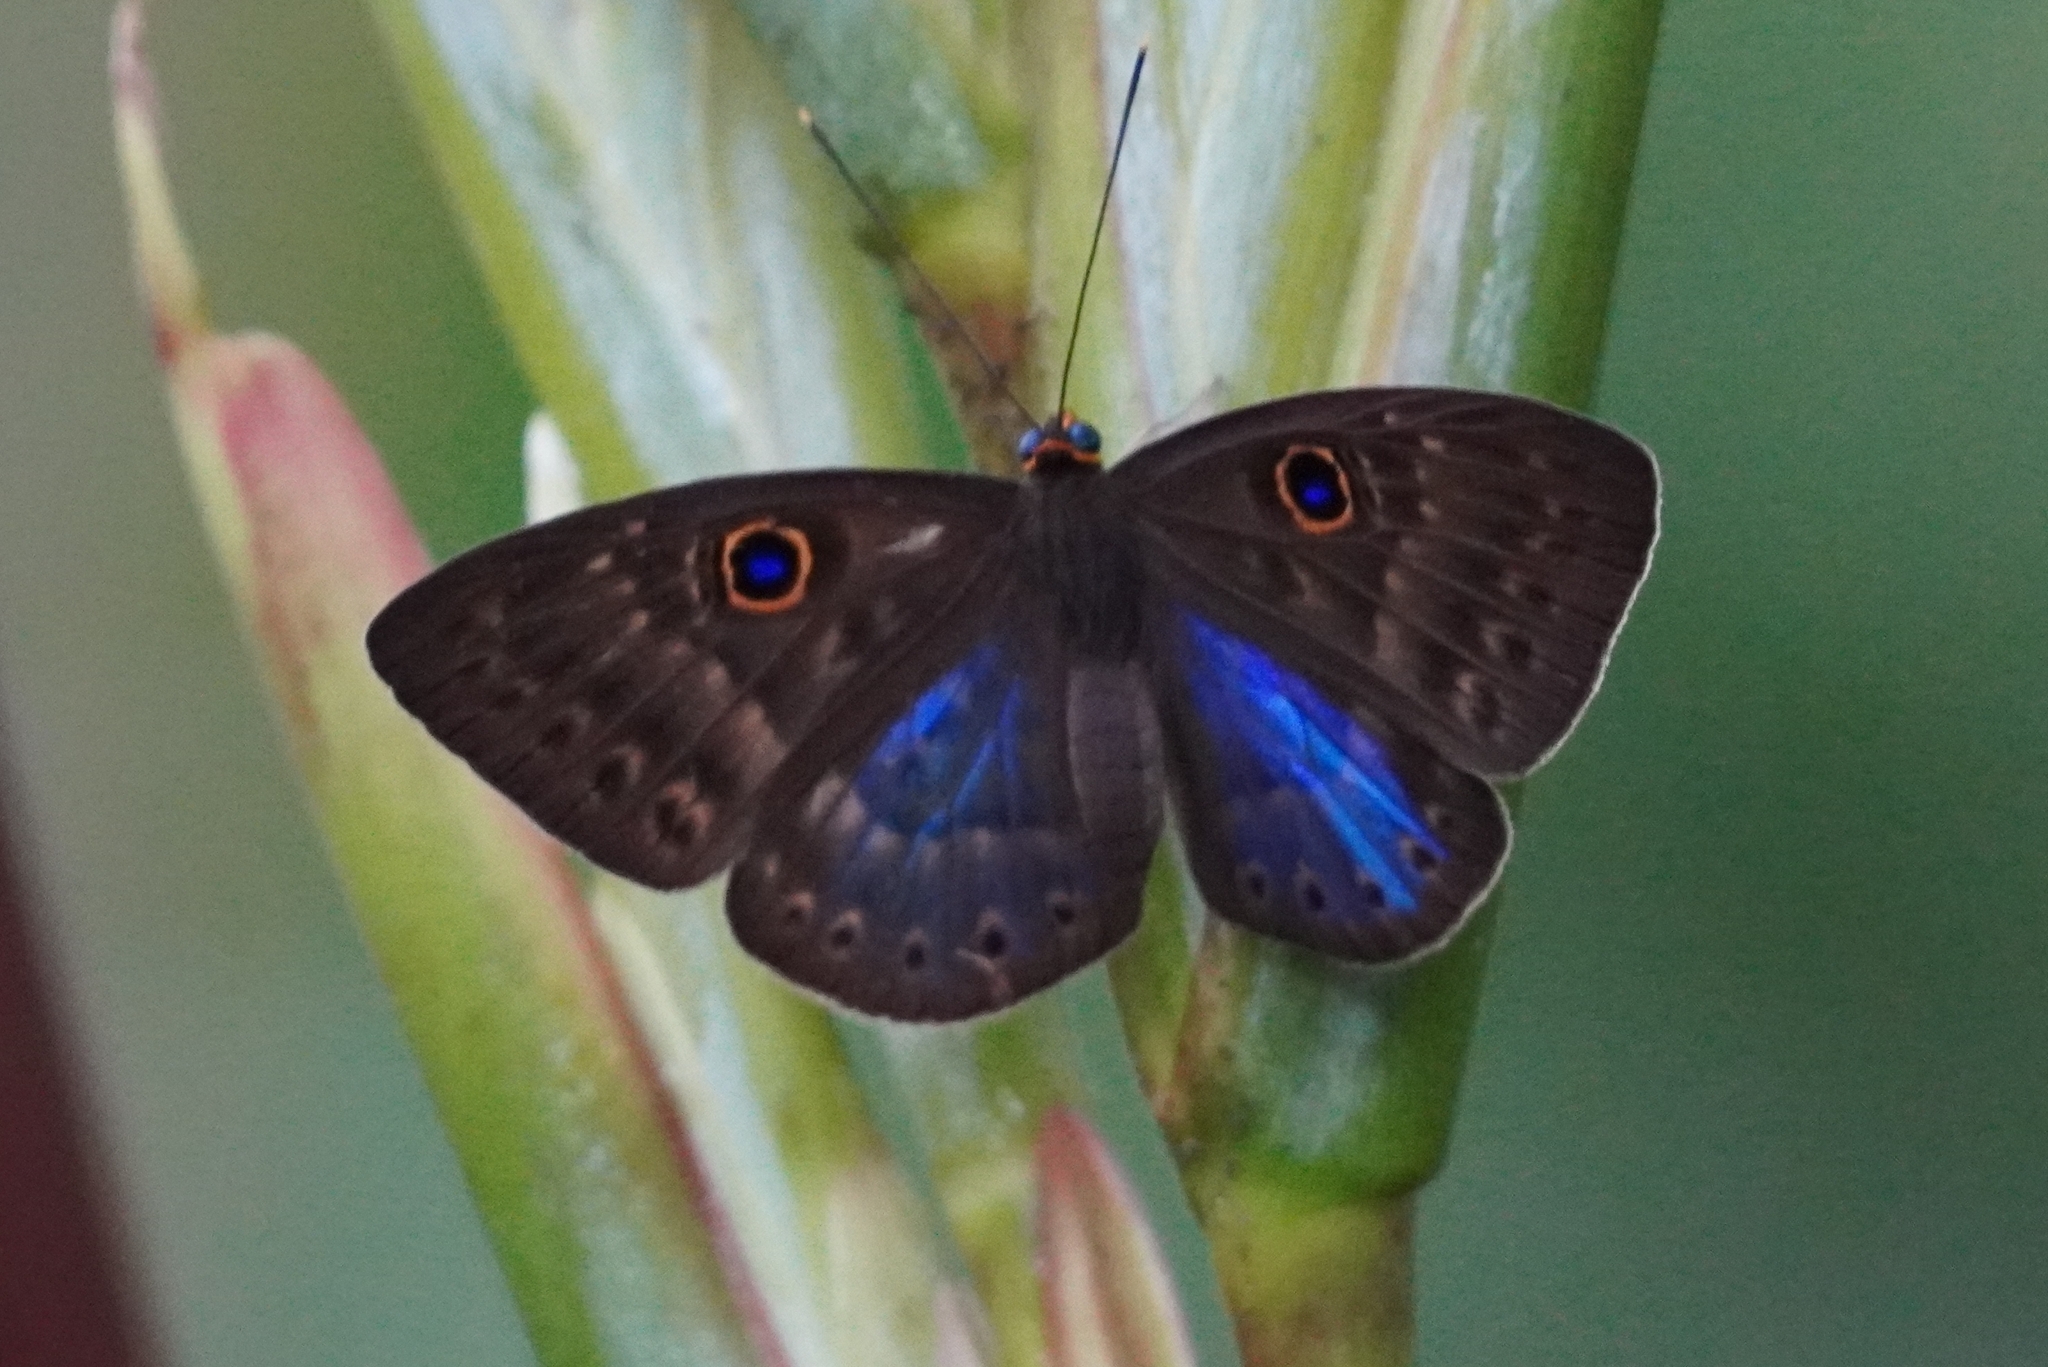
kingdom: Animalia
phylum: Cnidaria
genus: Eurybia
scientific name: Eurybia lycisca
